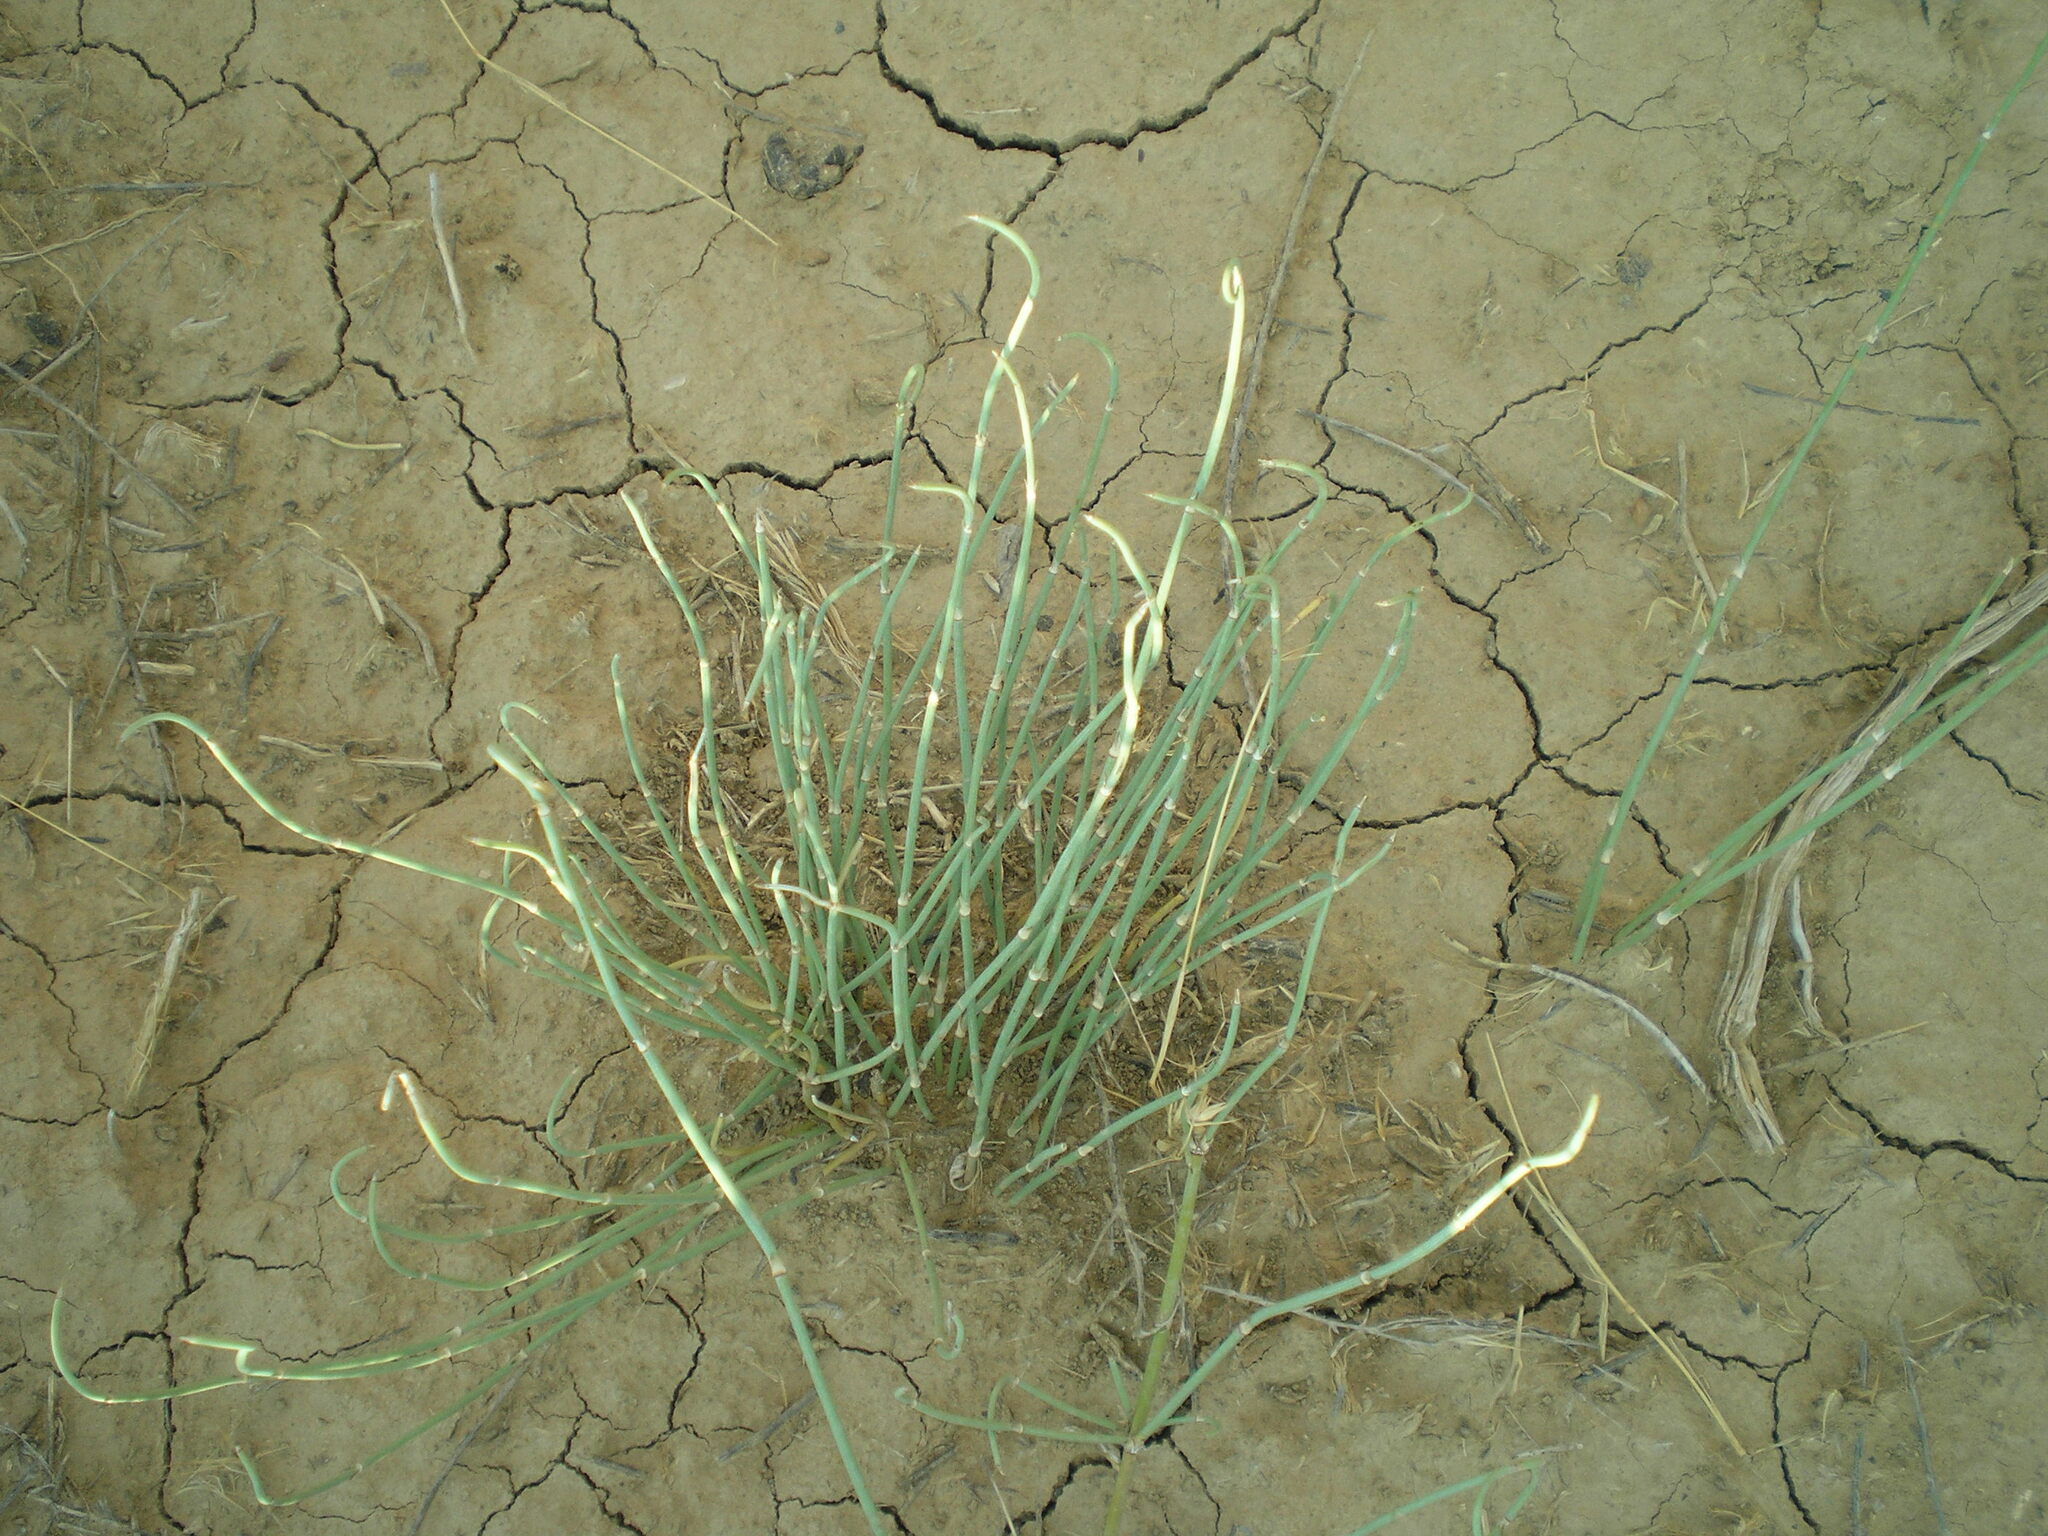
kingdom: Plantae
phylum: Tracheophyta
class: Gnetopsida
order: Ephedrales
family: Ephedraceae
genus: Ephedra
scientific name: Ephedra distachya
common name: Sea grape
